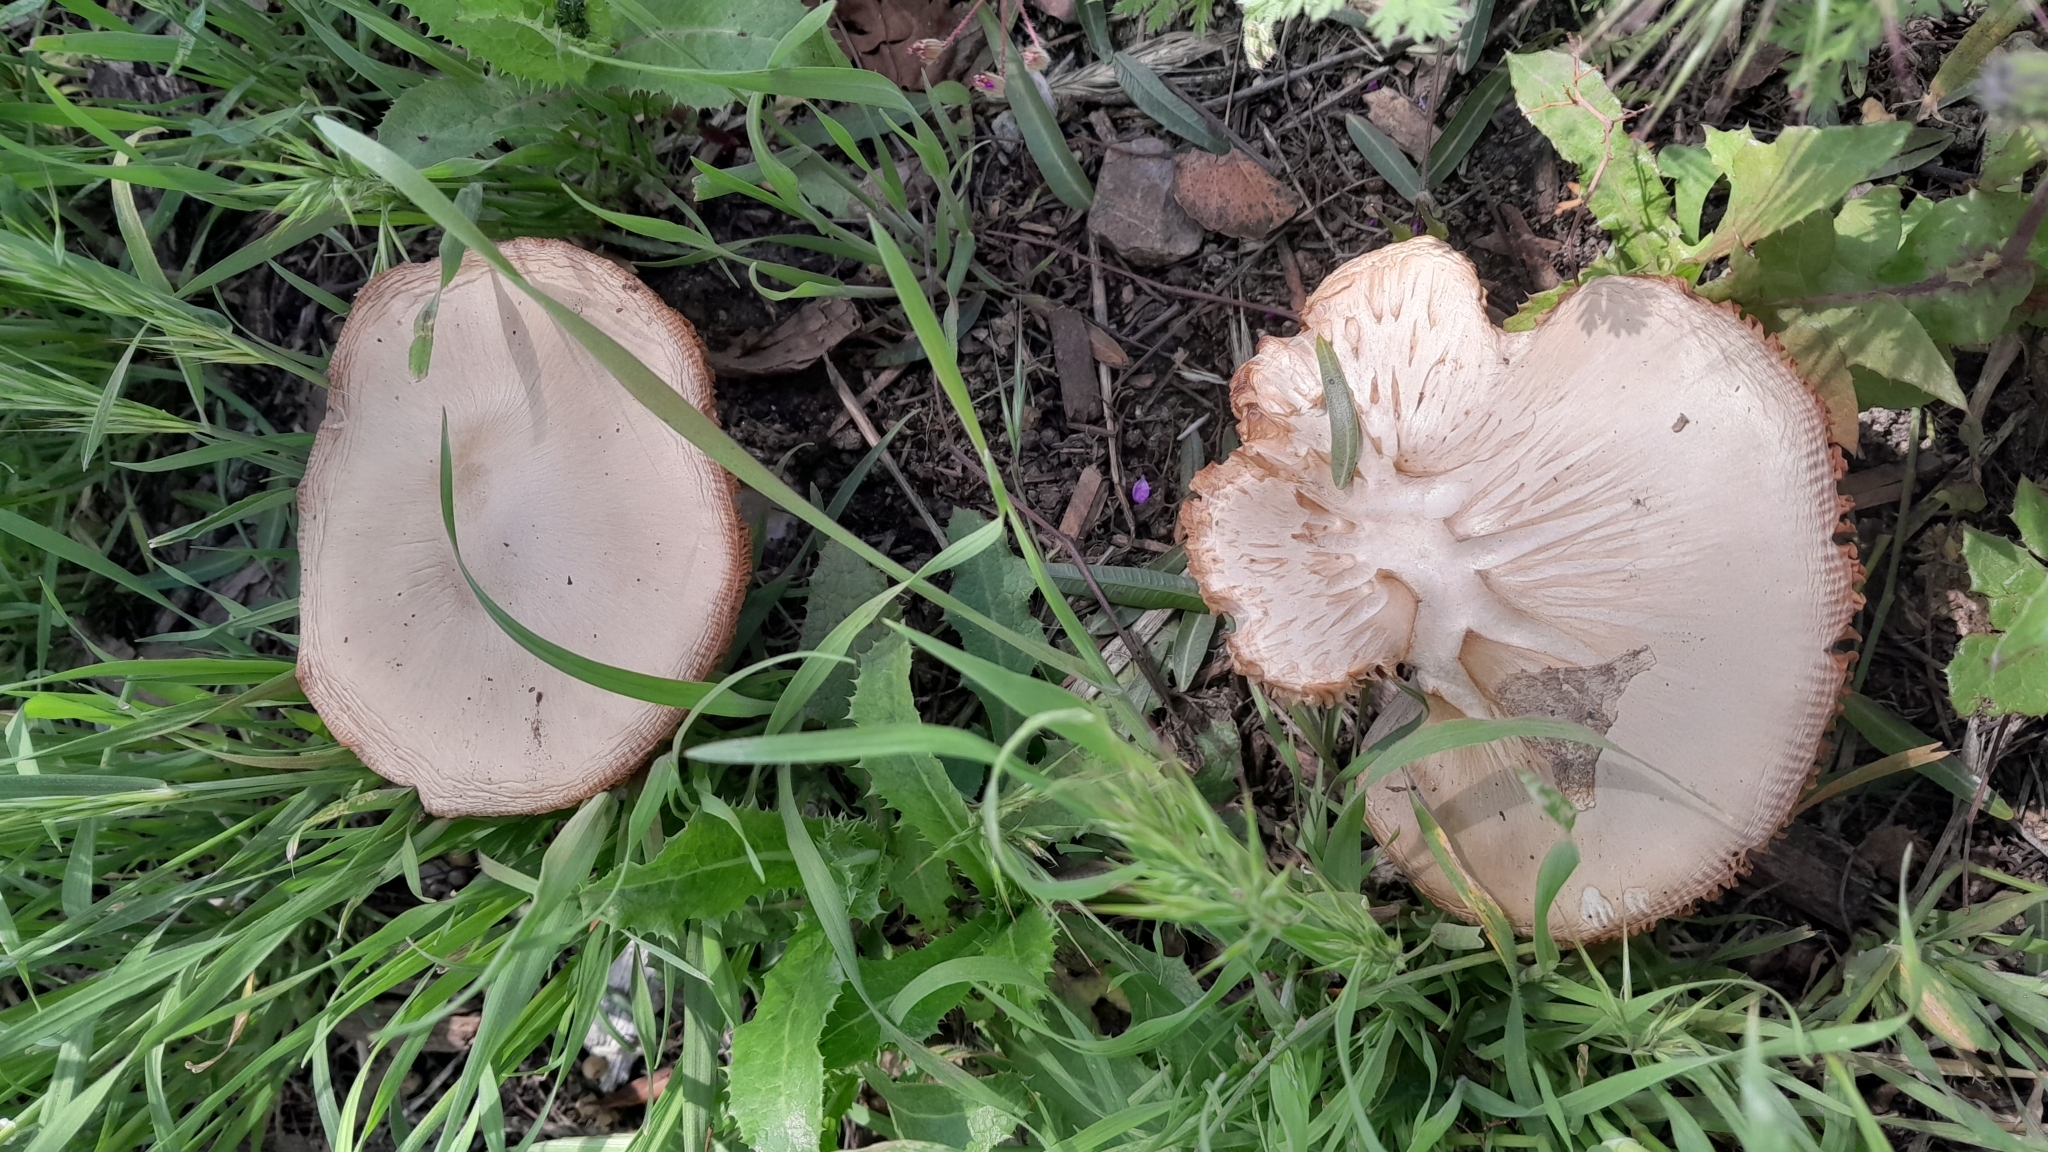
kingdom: Fungi
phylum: Basidiomycota
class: Agaricomycetes
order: Agaricales
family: Pluteaceae
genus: Volvopluteus
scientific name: Volvopluteus gloiocephalus
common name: Stubble rosegill
